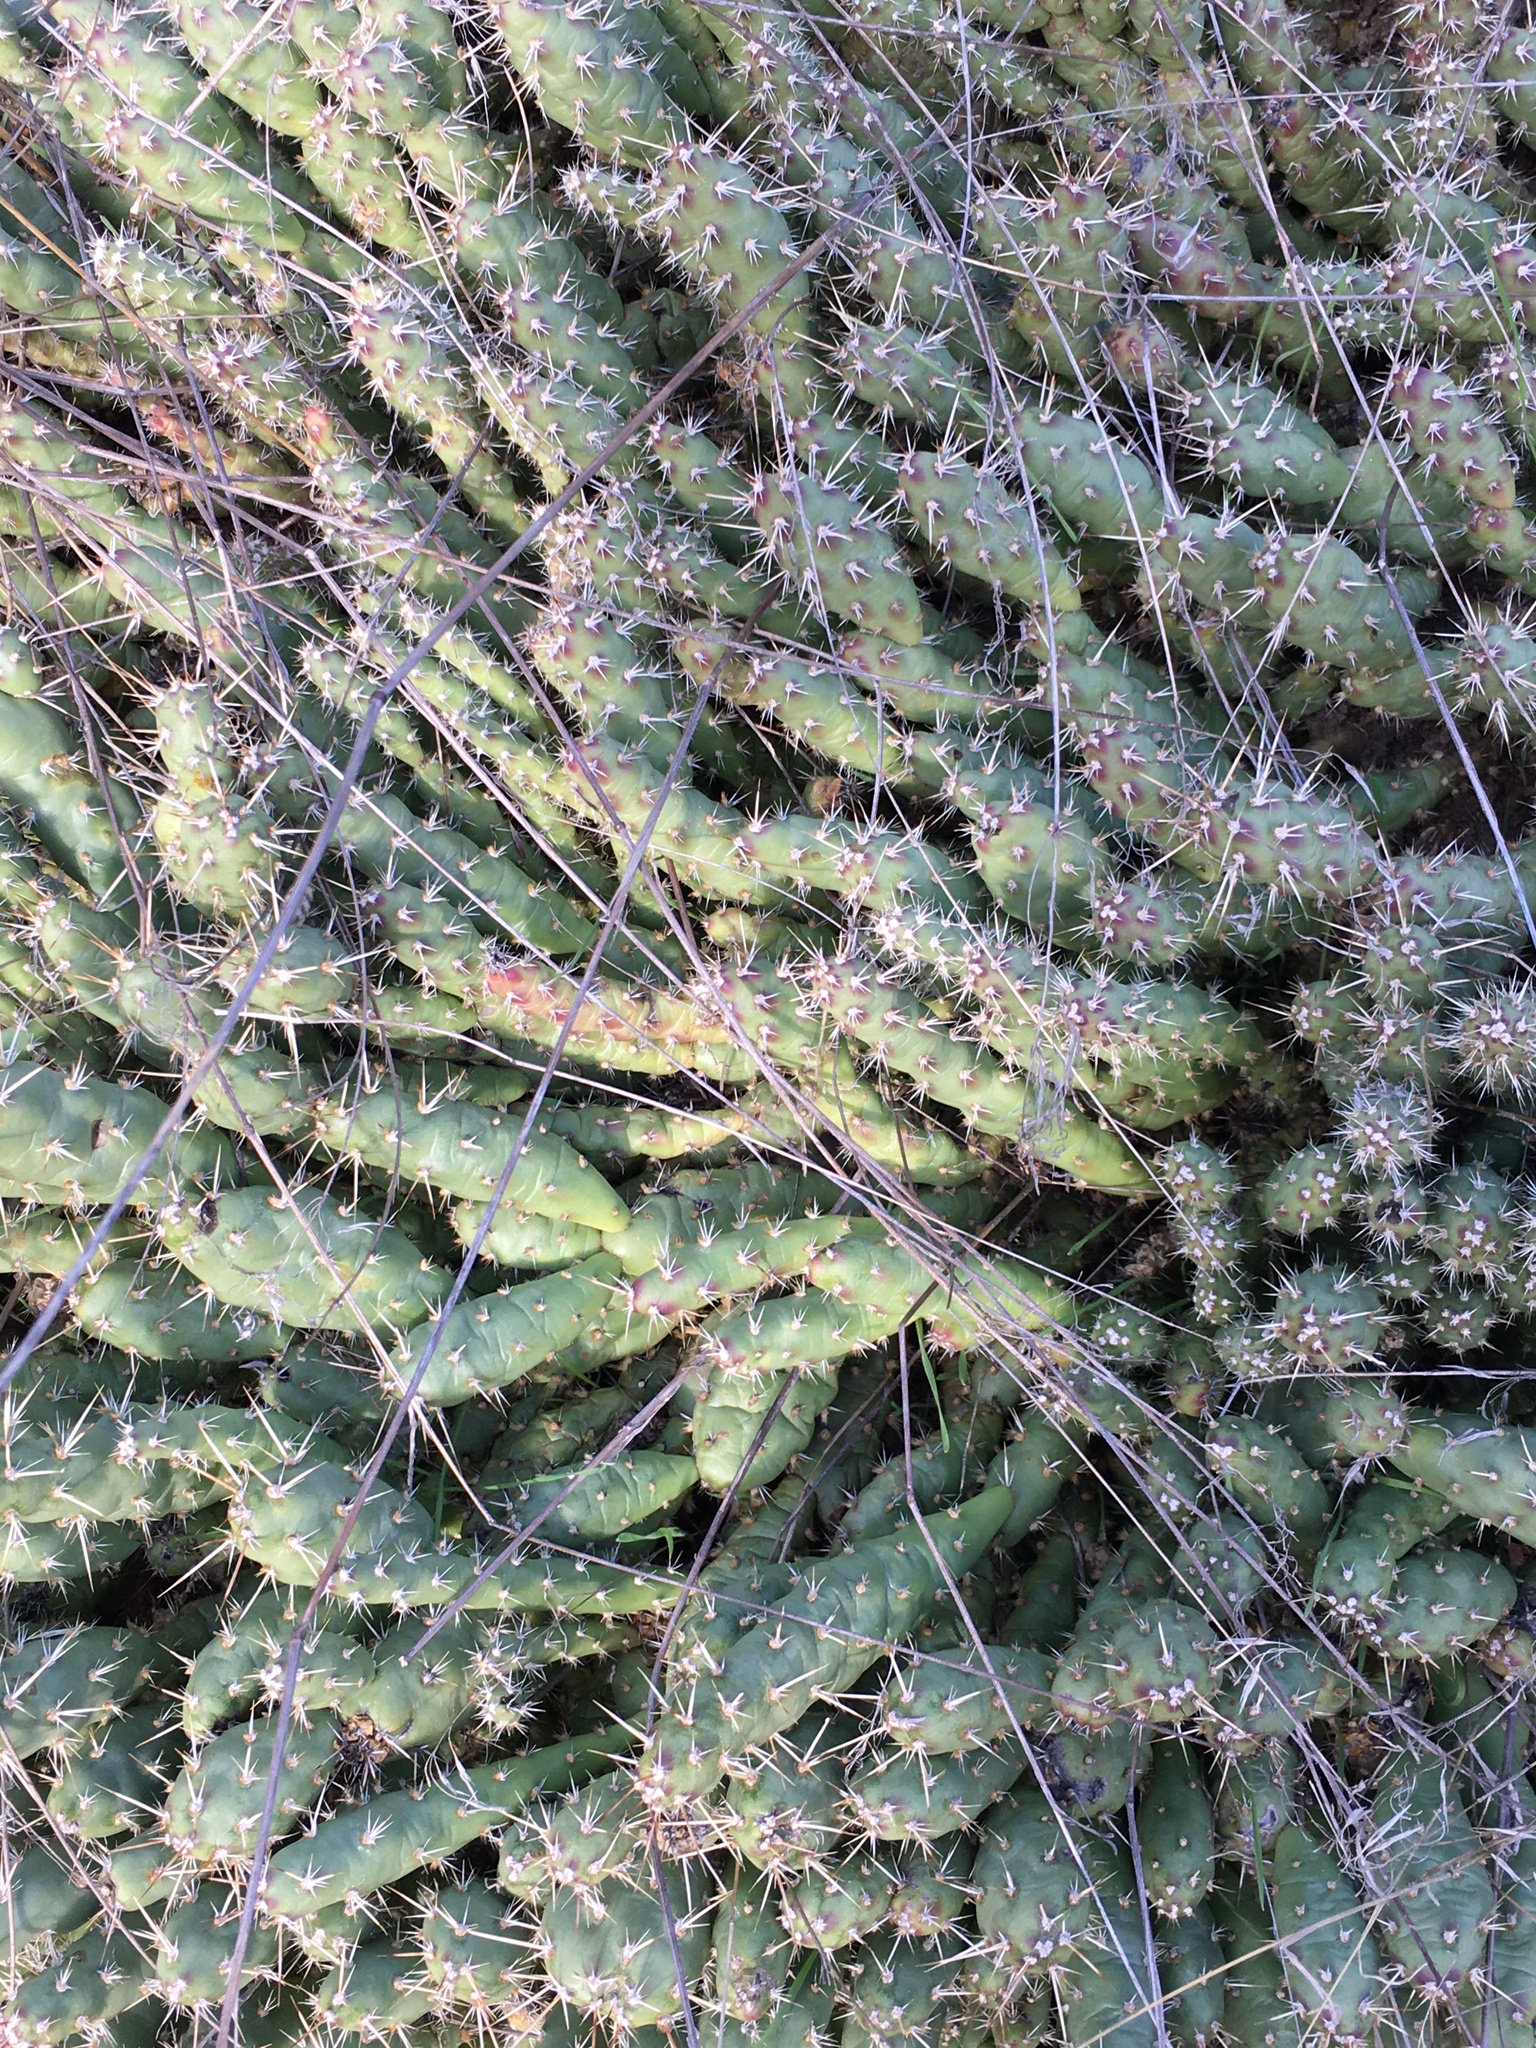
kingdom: Plantae
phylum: Tracheophyta
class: Magnoliopsida
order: Caryophyllales
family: Cactaceae
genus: Opuntia
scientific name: Opuntia fragilis
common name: Brittle cactus
